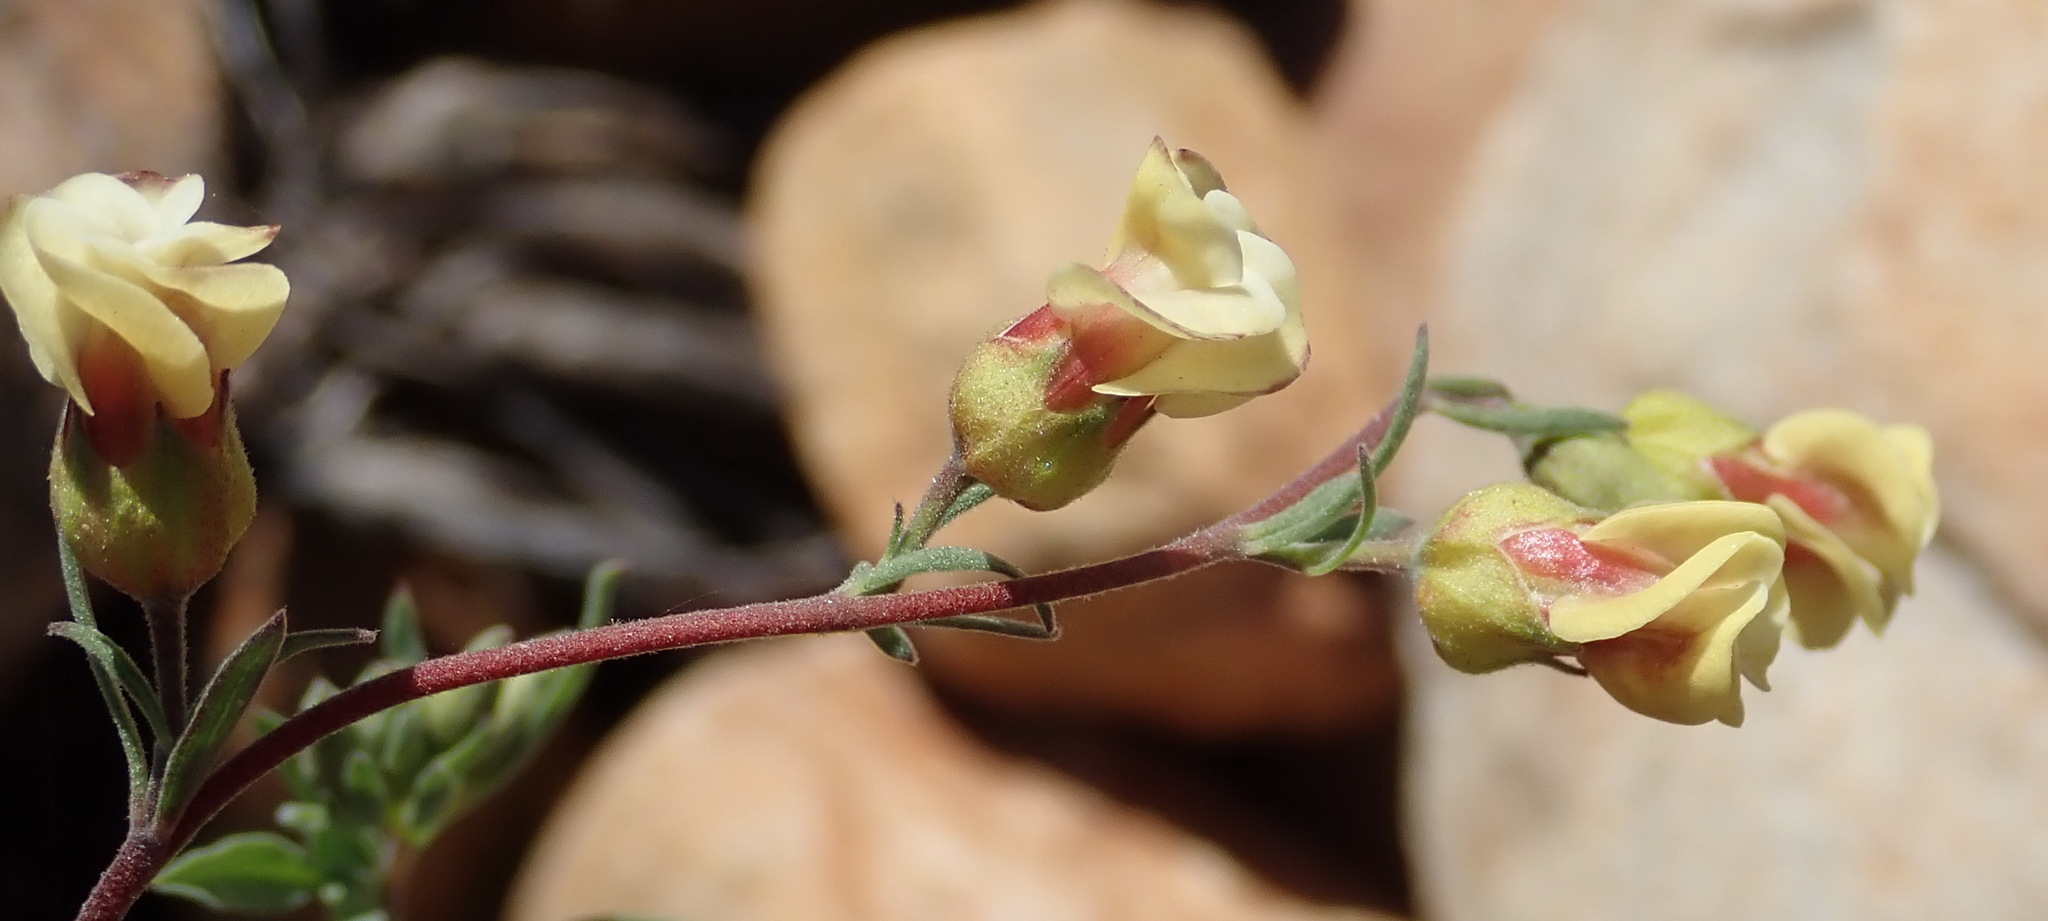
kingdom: Plantae
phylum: Tracheophyta
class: Magnoliopsida
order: Malvales
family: Malvaceae
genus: Hermannia
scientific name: Hermannia gracilis
